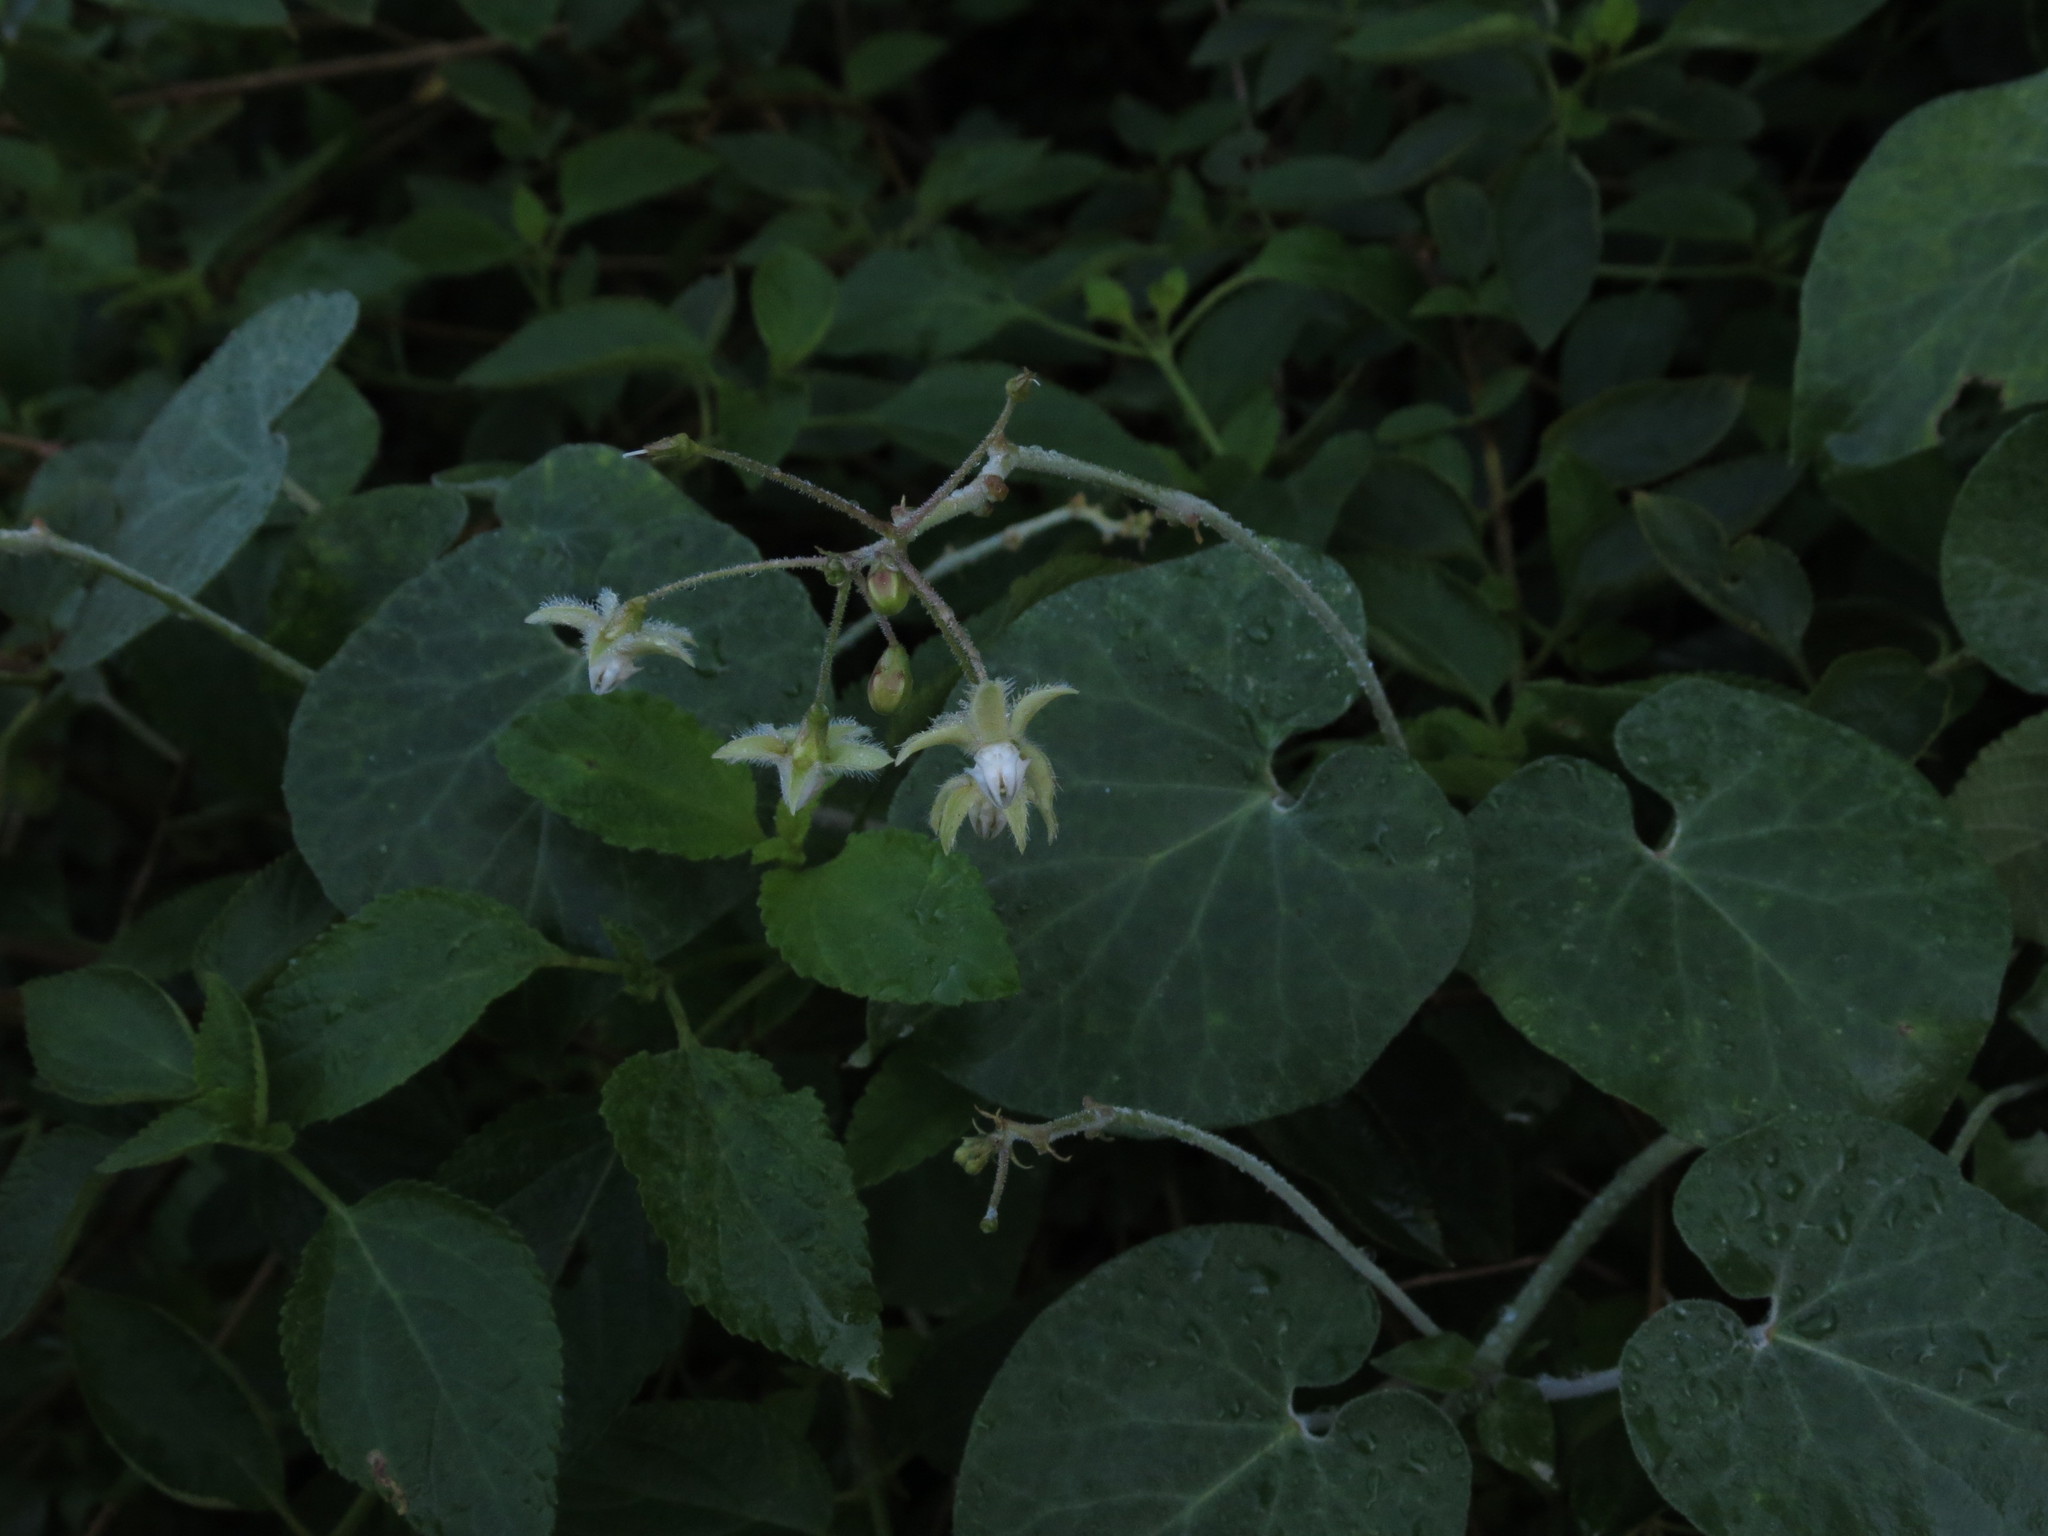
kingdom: Plantae
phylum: Tracheophyta
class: Magnoliopsida
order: Gentianales
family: Apocynaceae
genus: Pergularia
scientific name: Pergularia daemia
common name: Trellis-vine
